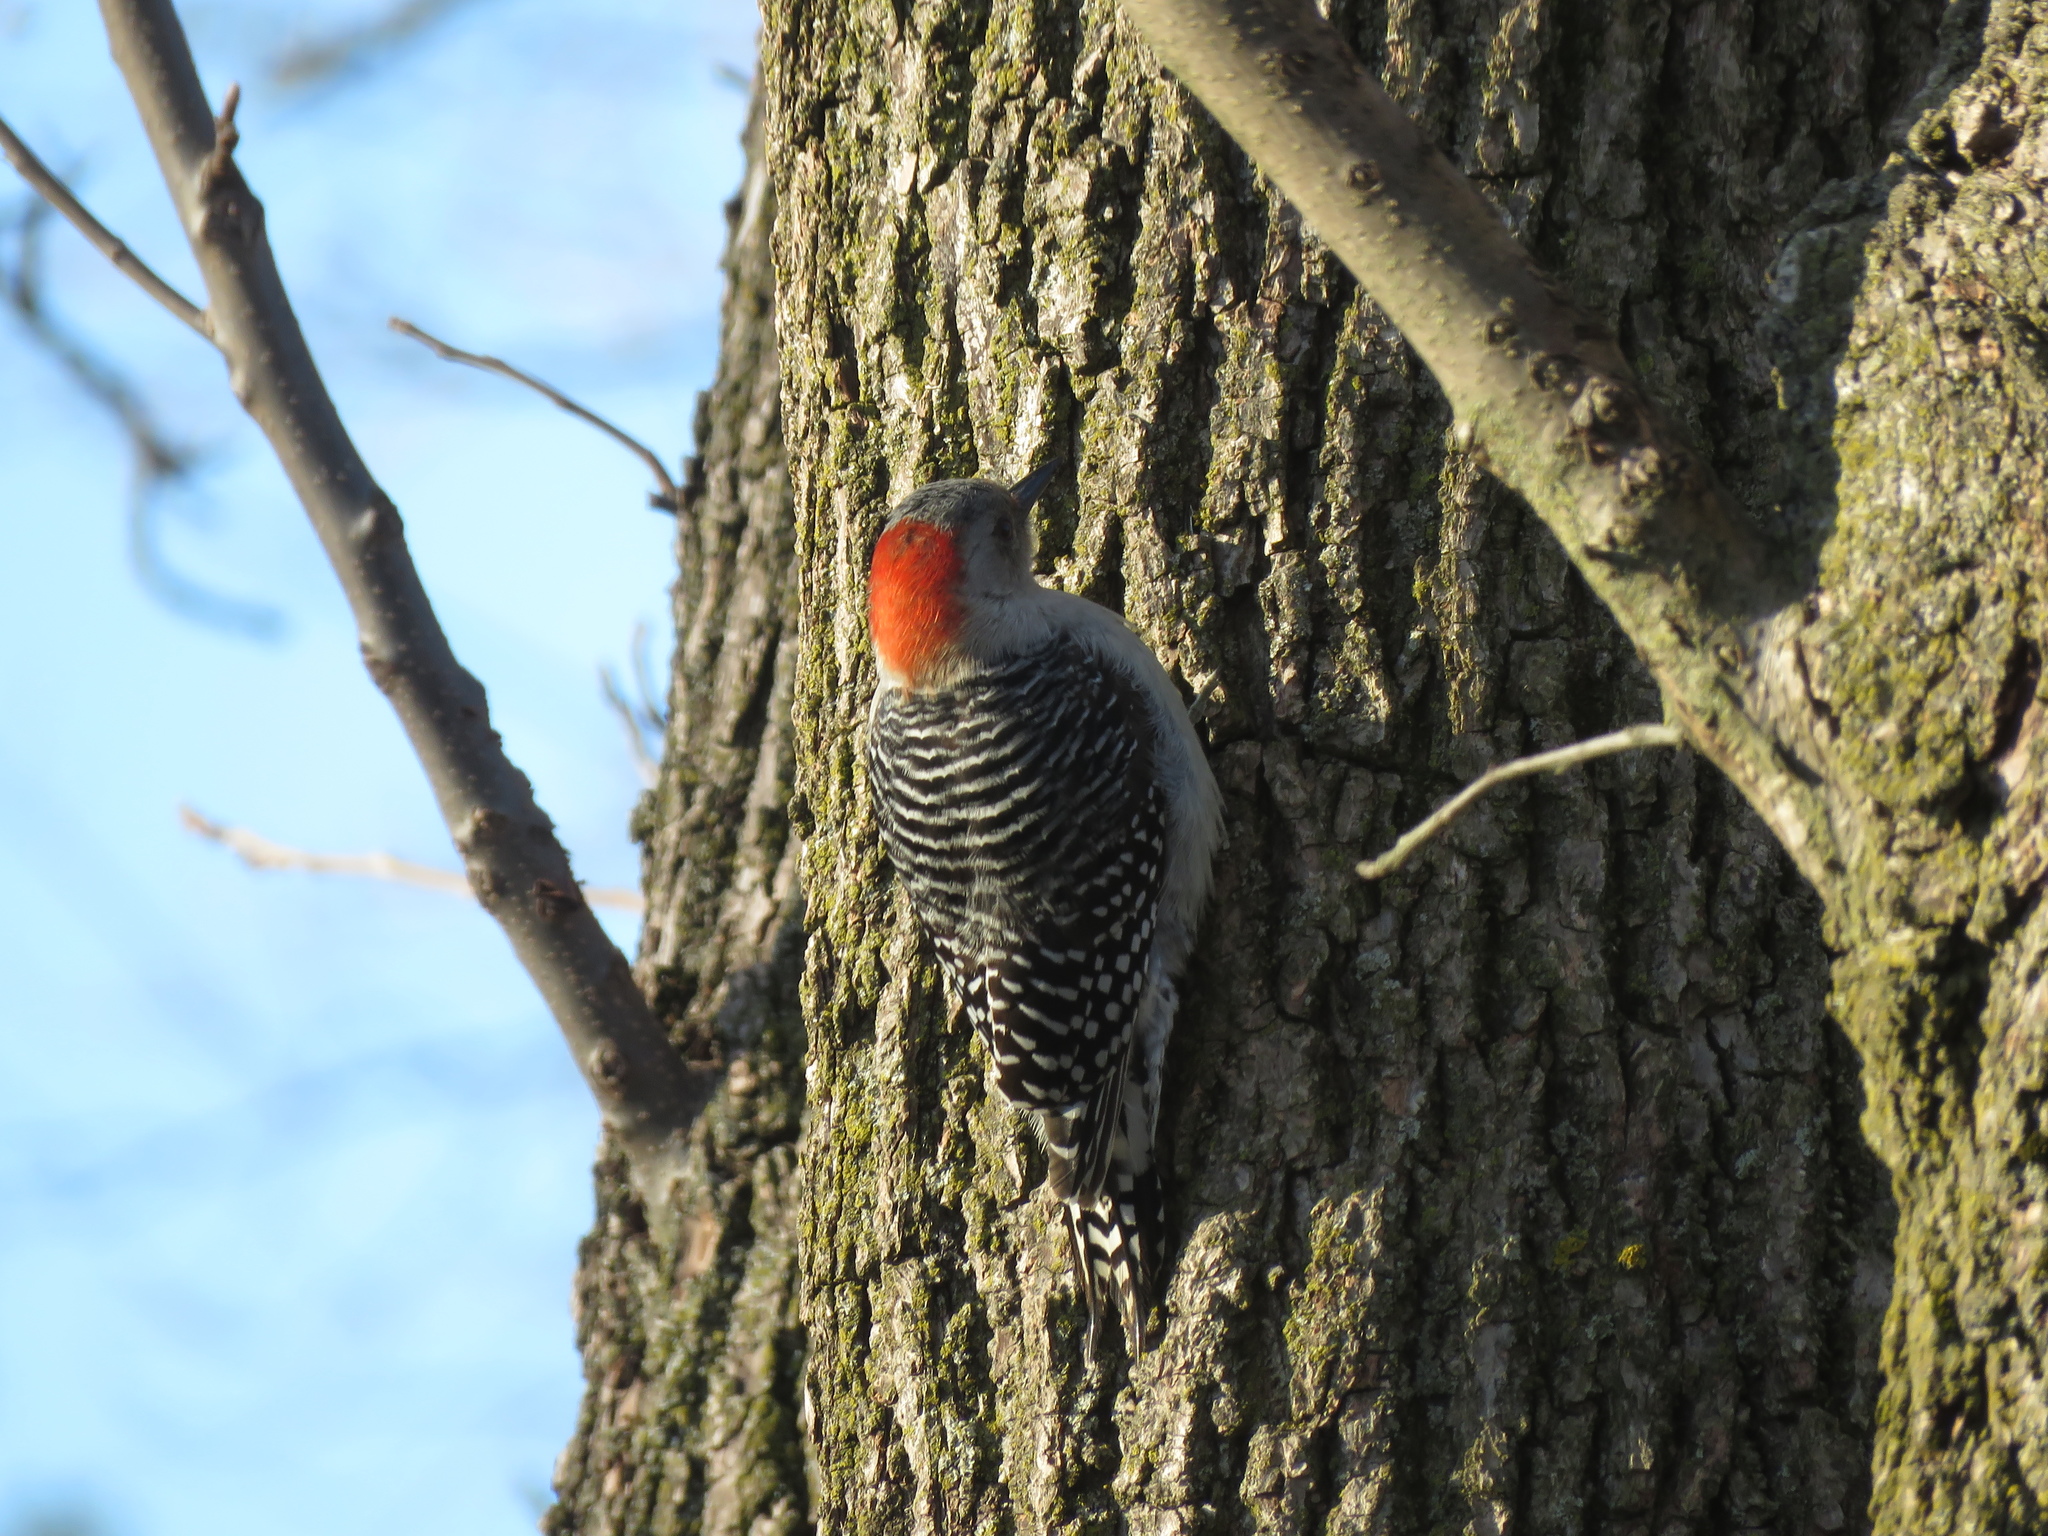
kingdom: Animalia
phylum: Chordata
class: Aves
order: Piciformes
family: Picidae
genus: Melanerpes
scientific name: Melanerpes carolinus
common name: Red-bellied woodpecker
